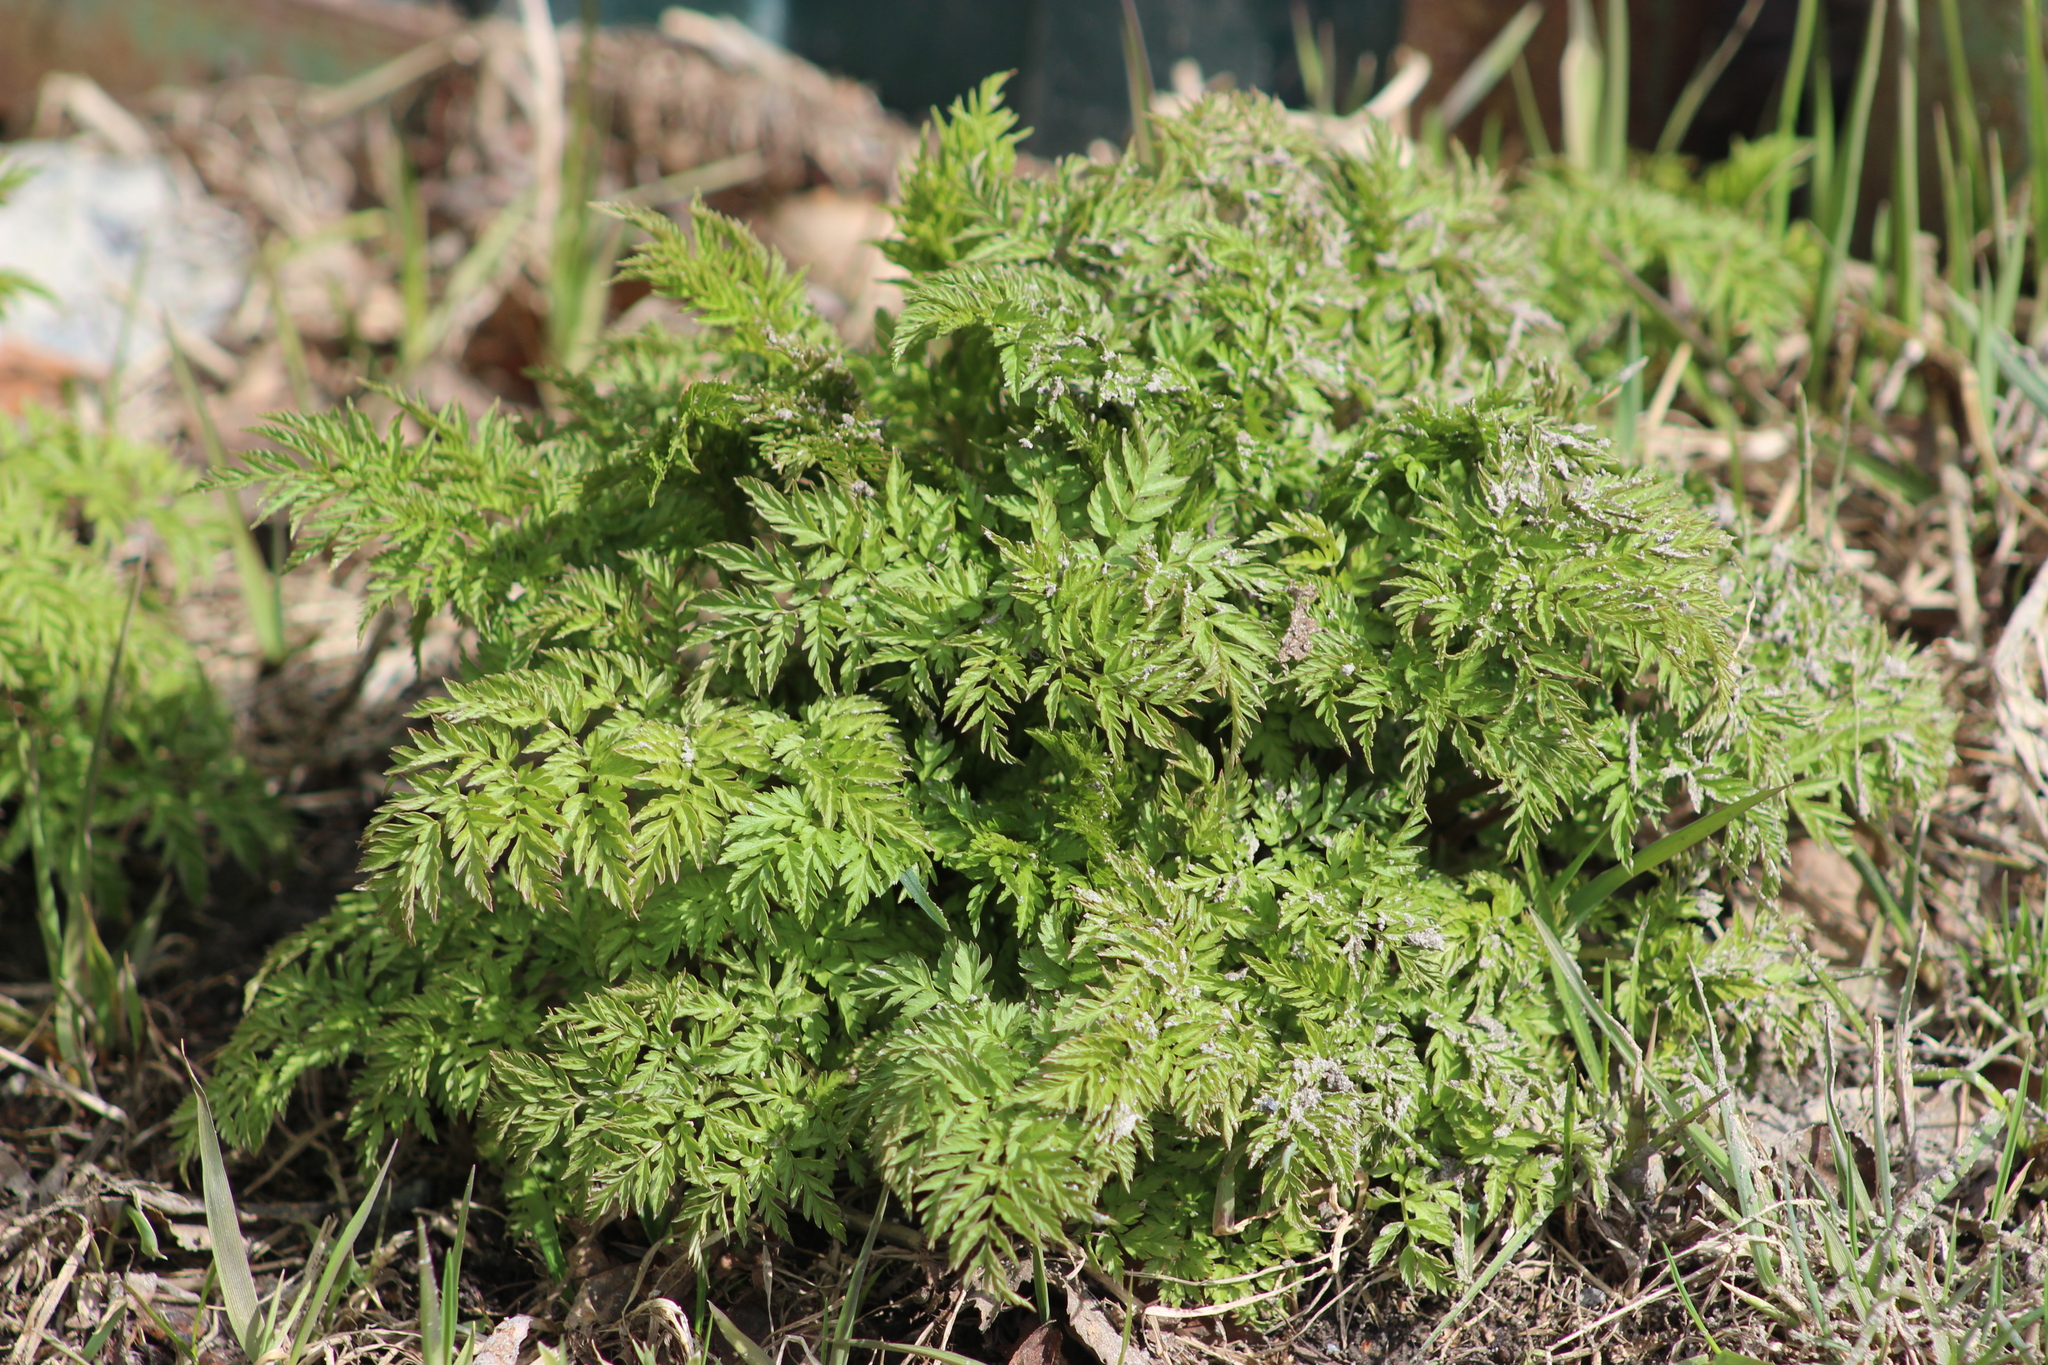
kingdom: Plantae
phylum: Tracheophyta
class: Magnoliopsida
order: Apiales
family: Apiaceae
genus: Anthriscus
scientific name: Anthriscus sylvestris
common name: Cow parsley
